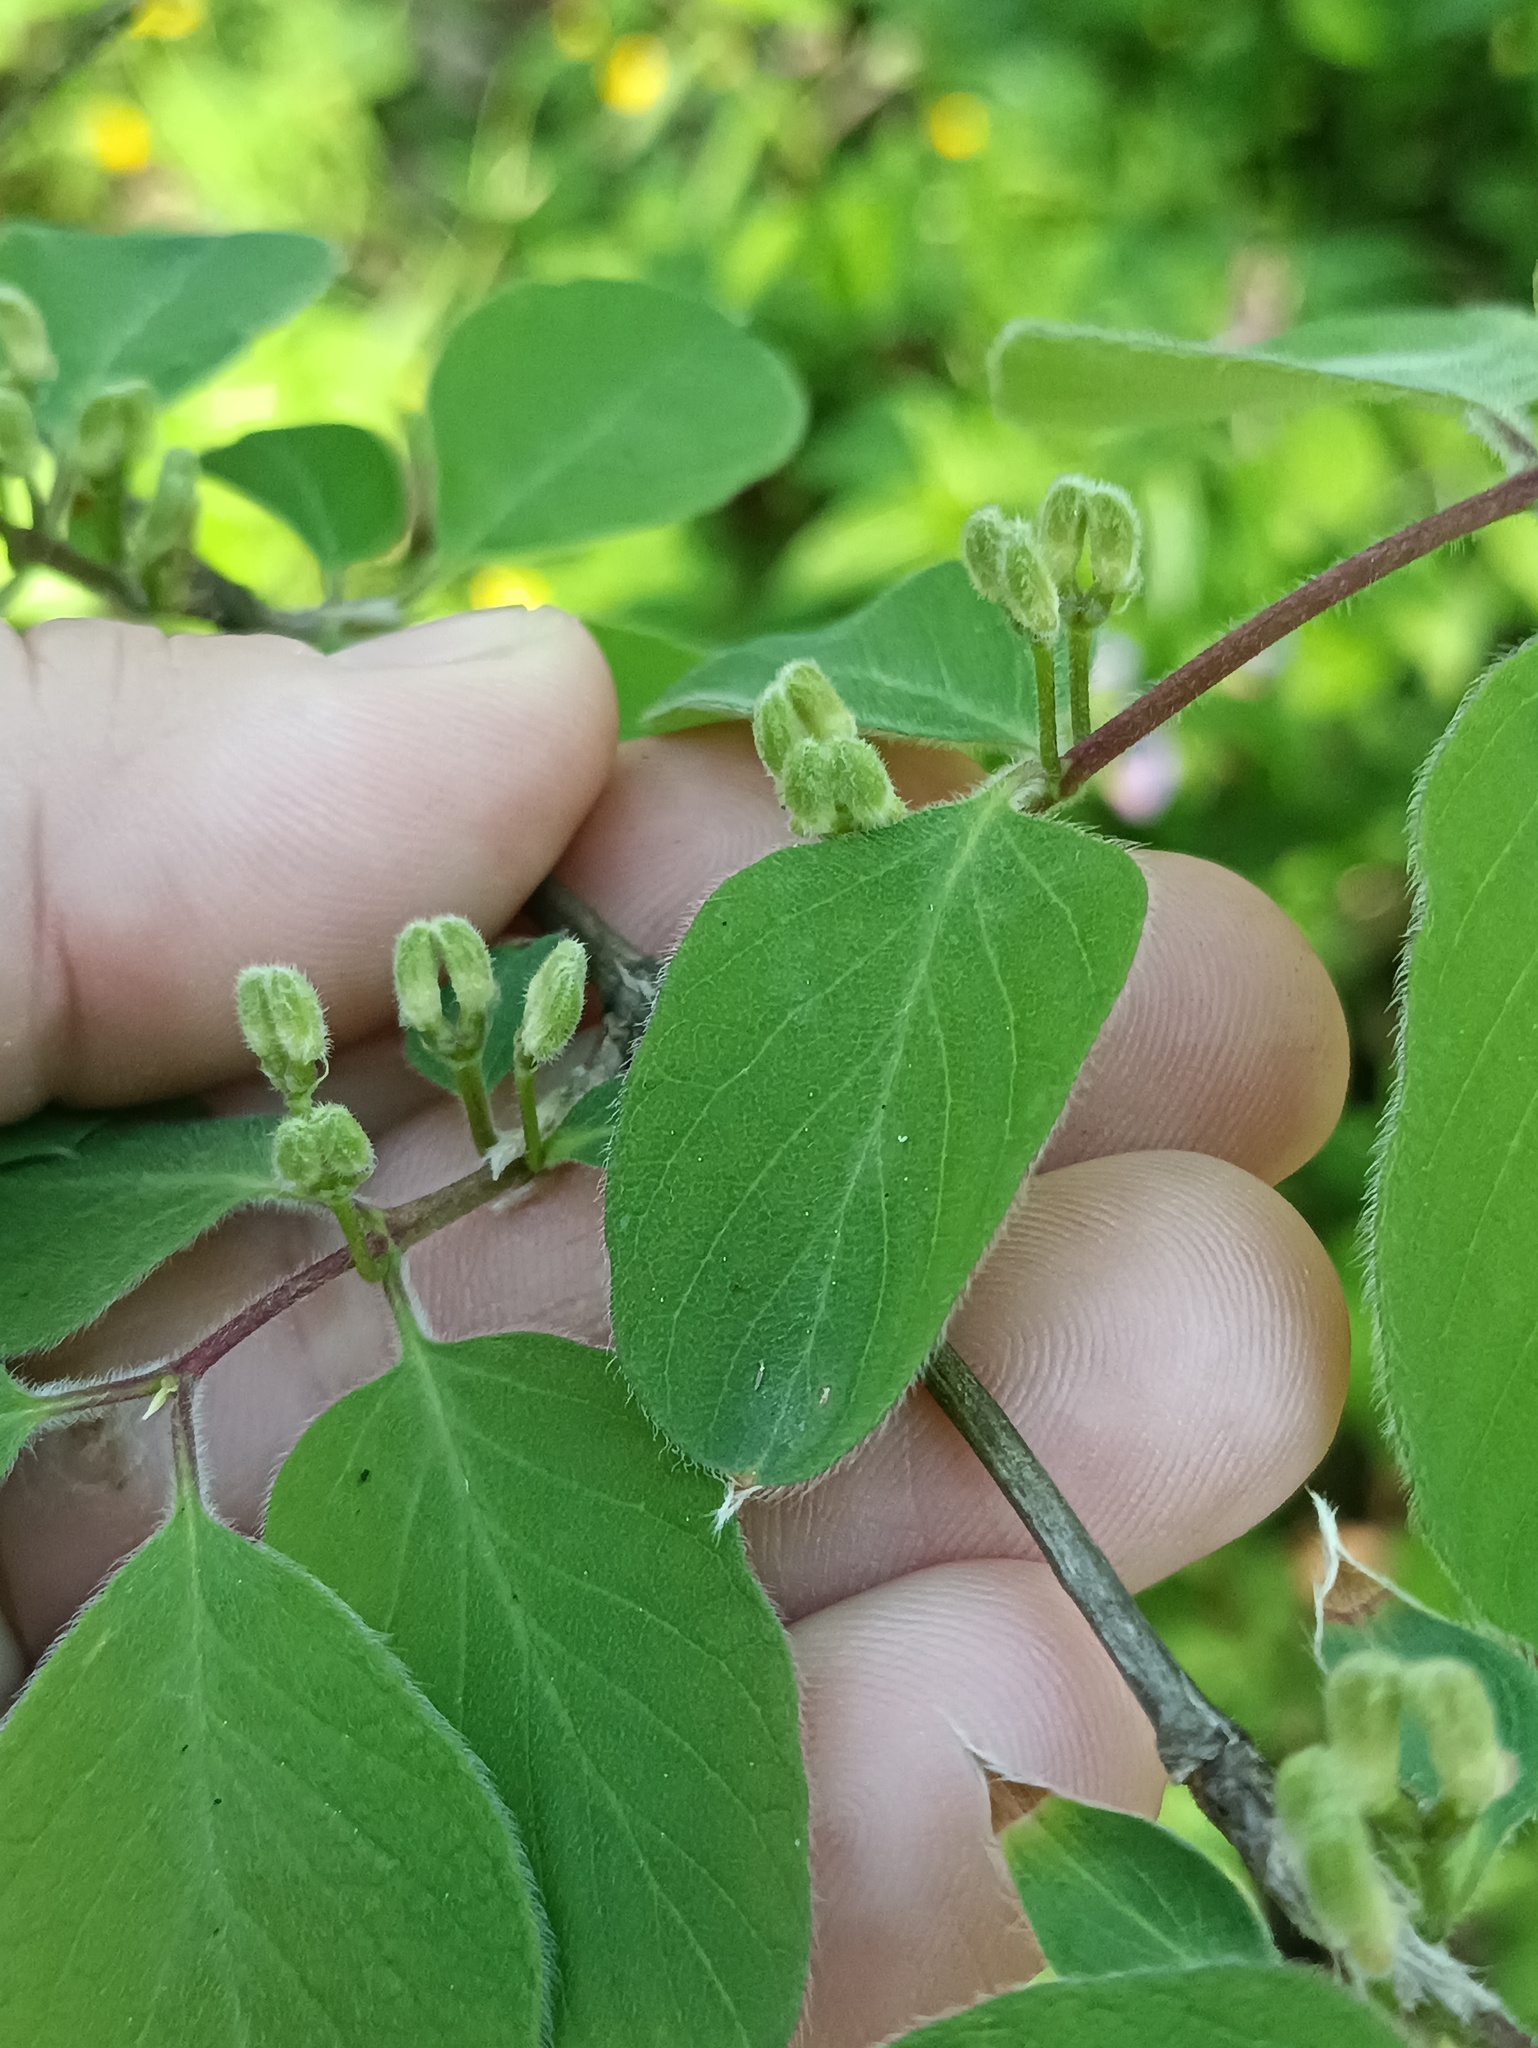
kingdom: Plantae
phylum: Tracheophyta
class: Magnoliopsida
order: Dipsacales
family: Caprifoliaceae
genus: Lonicera
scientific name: Lonicera xylosteum
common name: Fly honeysuckle
